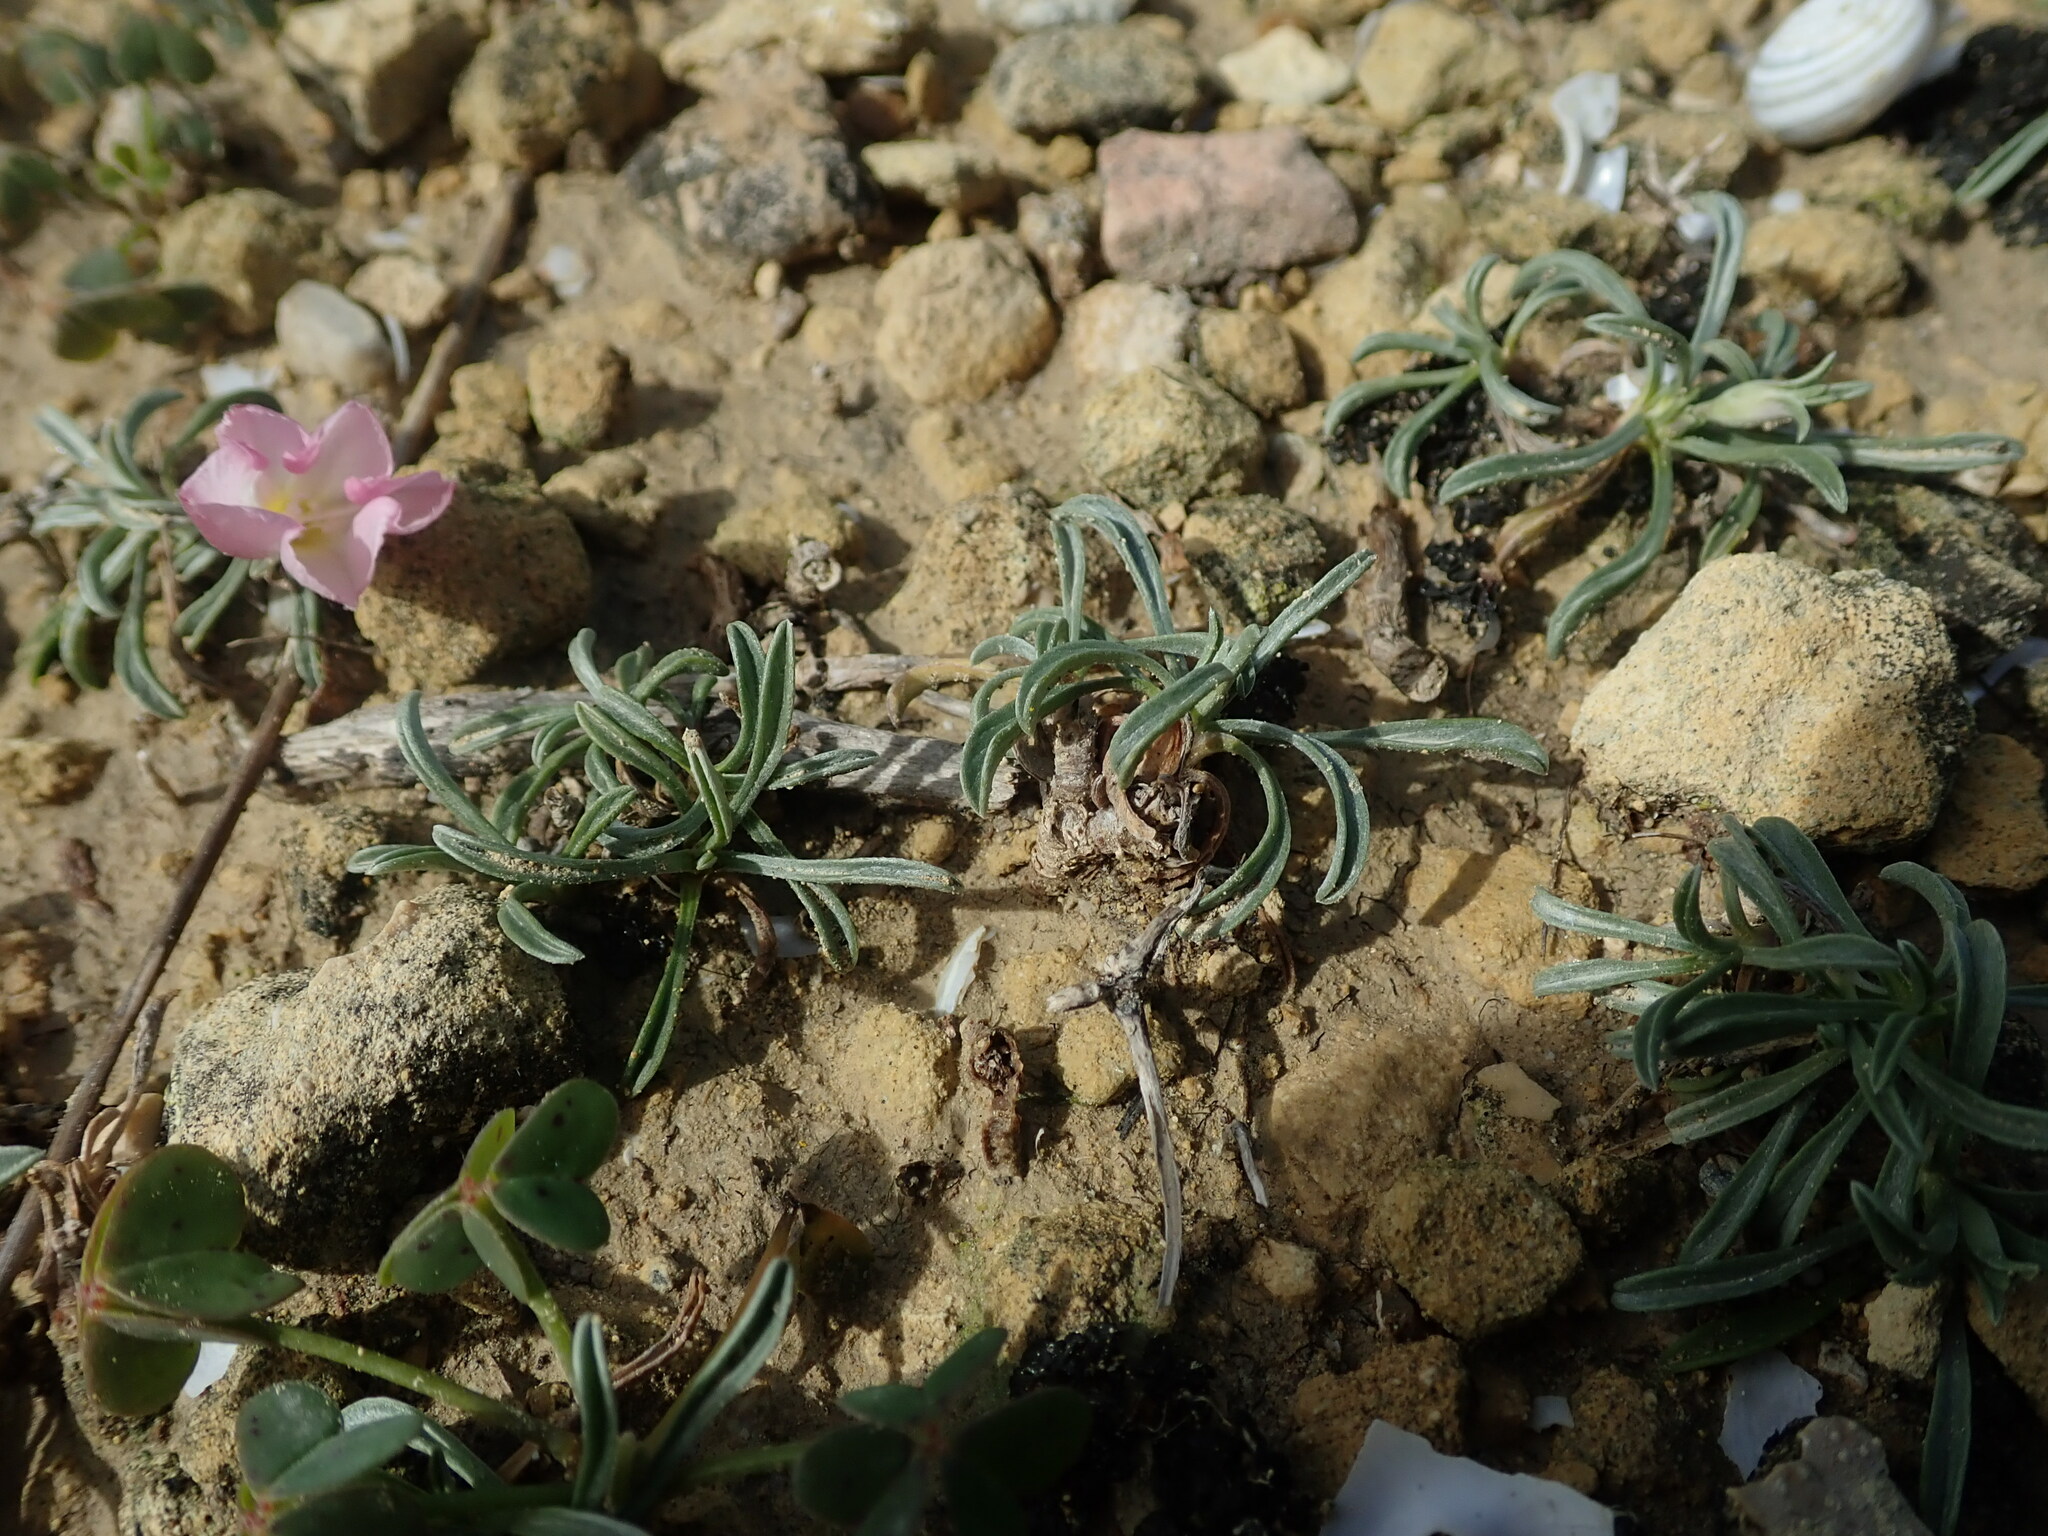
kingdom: Plantae
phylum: Tracheophyta
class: Magnoliopsida
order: Solanales
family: Convolvulaceae
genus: Convolvulus
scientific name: Convolvulus lineatus
